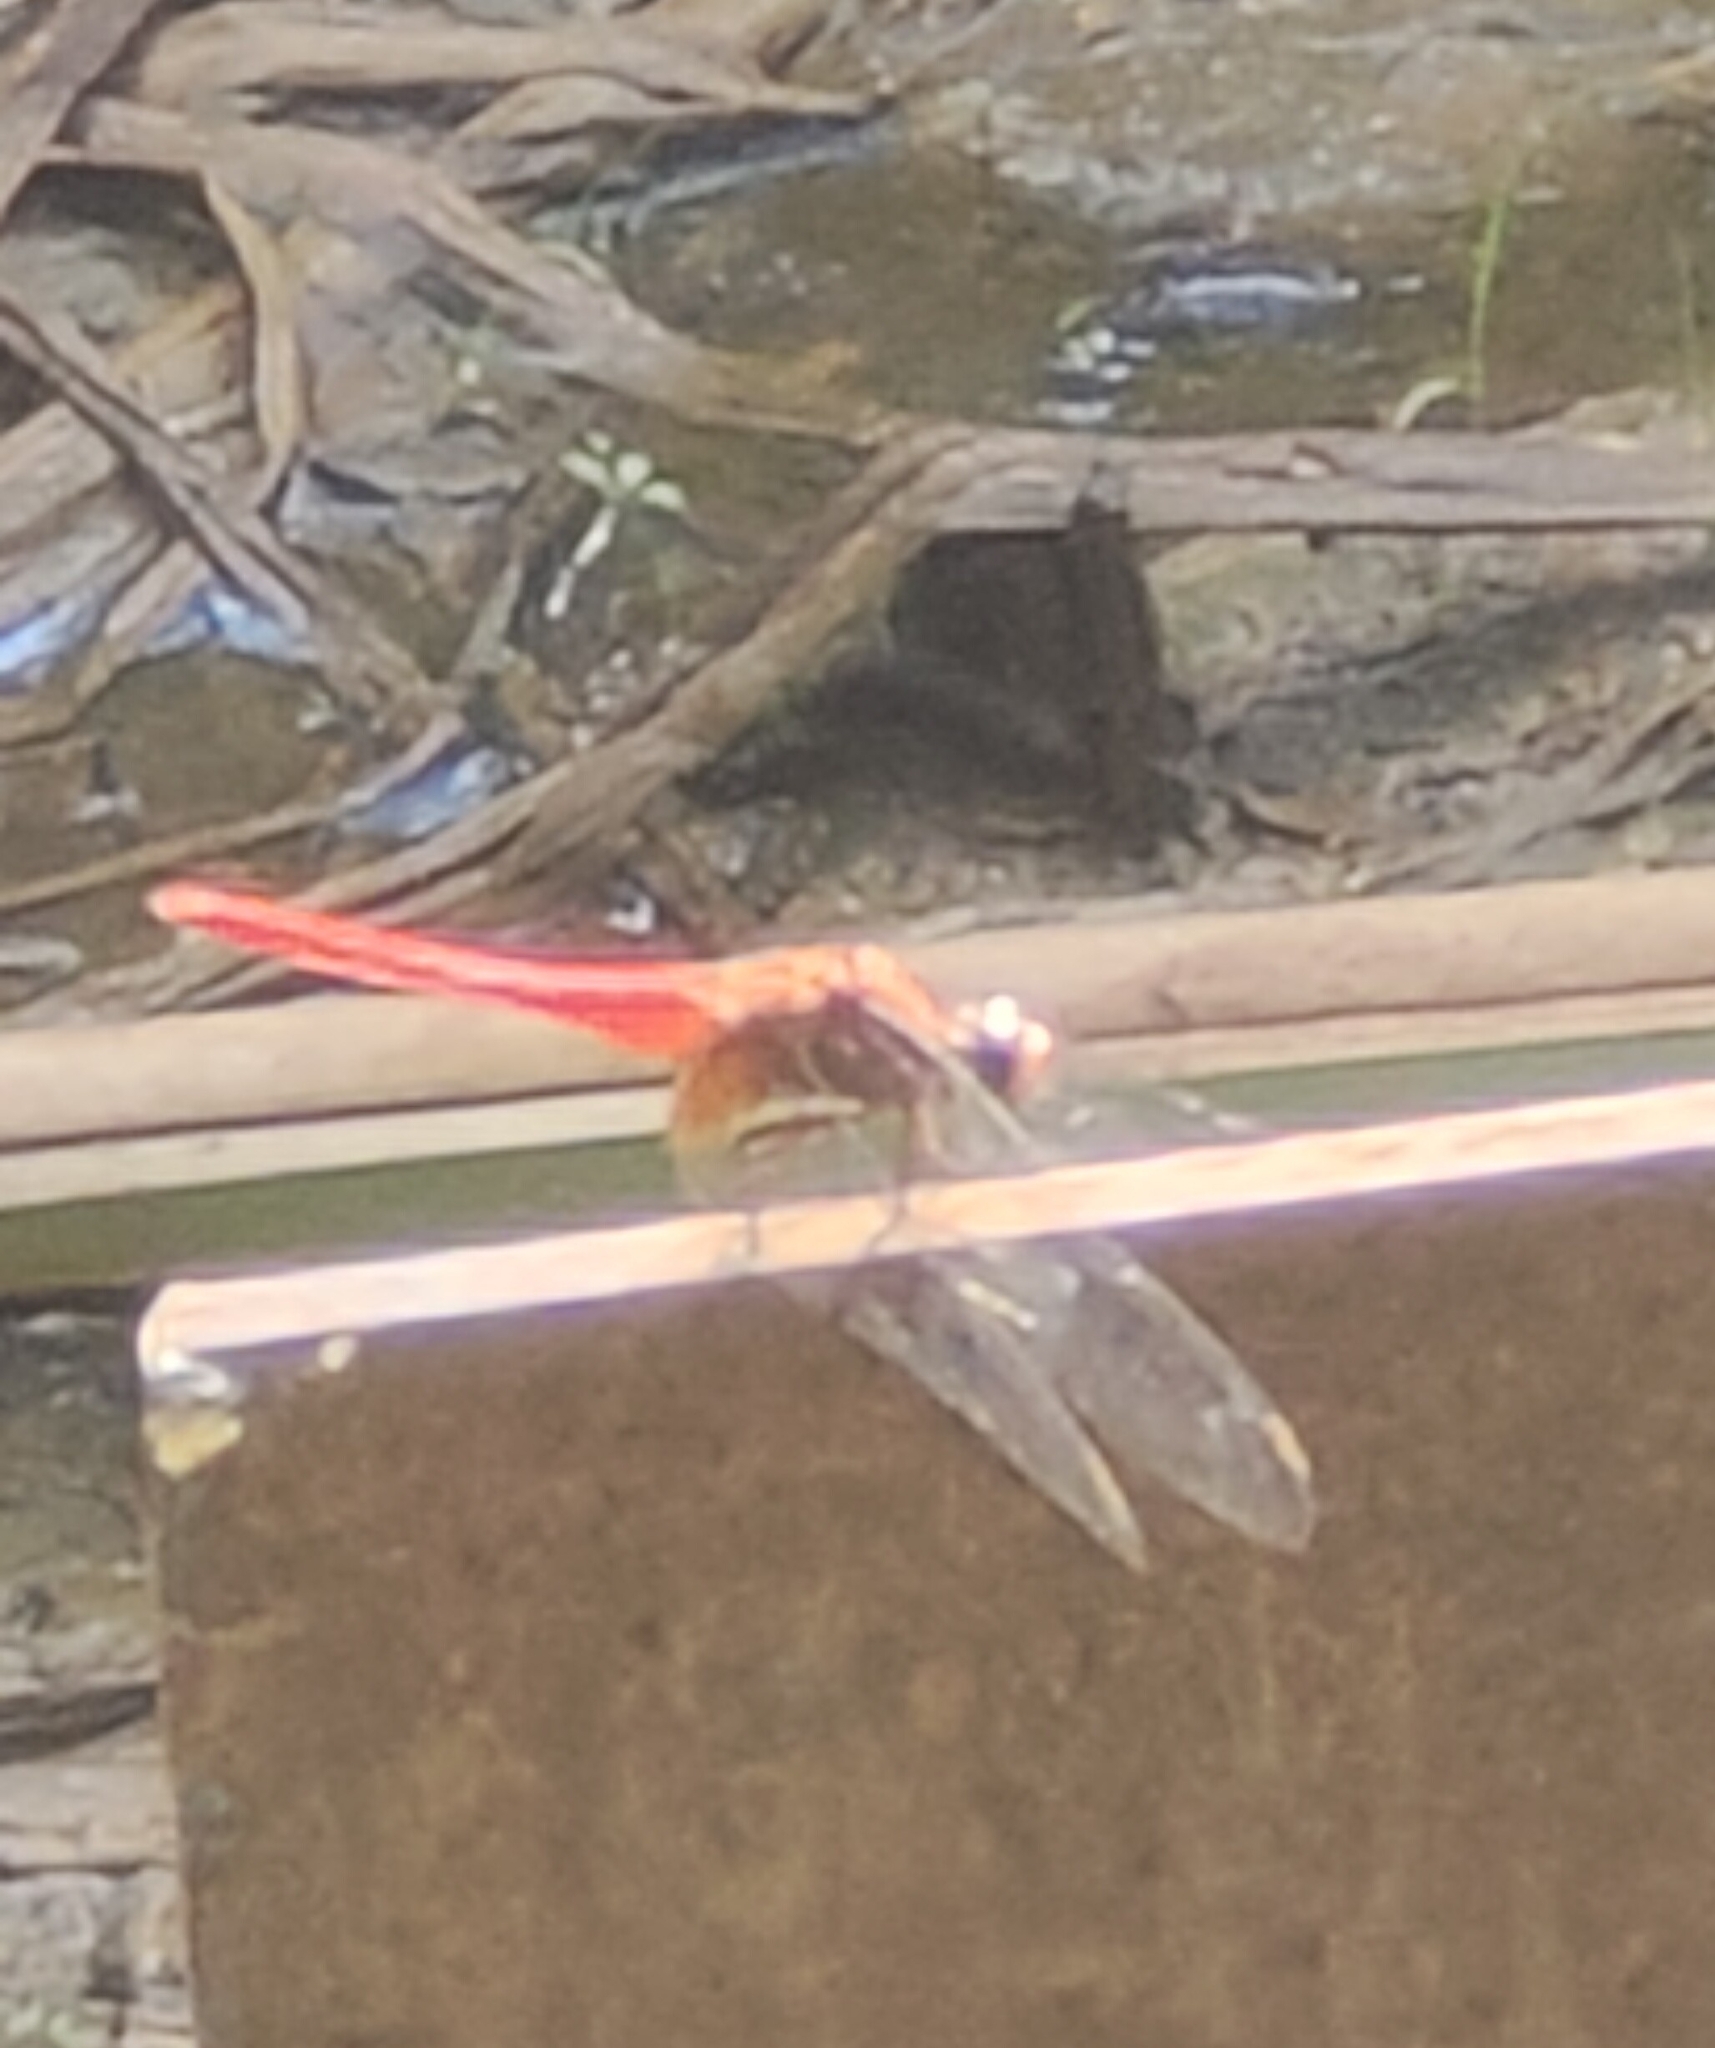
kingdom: Animalia
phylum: Arthropoda
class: Insecta
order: Odonata
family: Libellulidae
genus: Orthetrum
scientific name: Orthetrum testaceum
